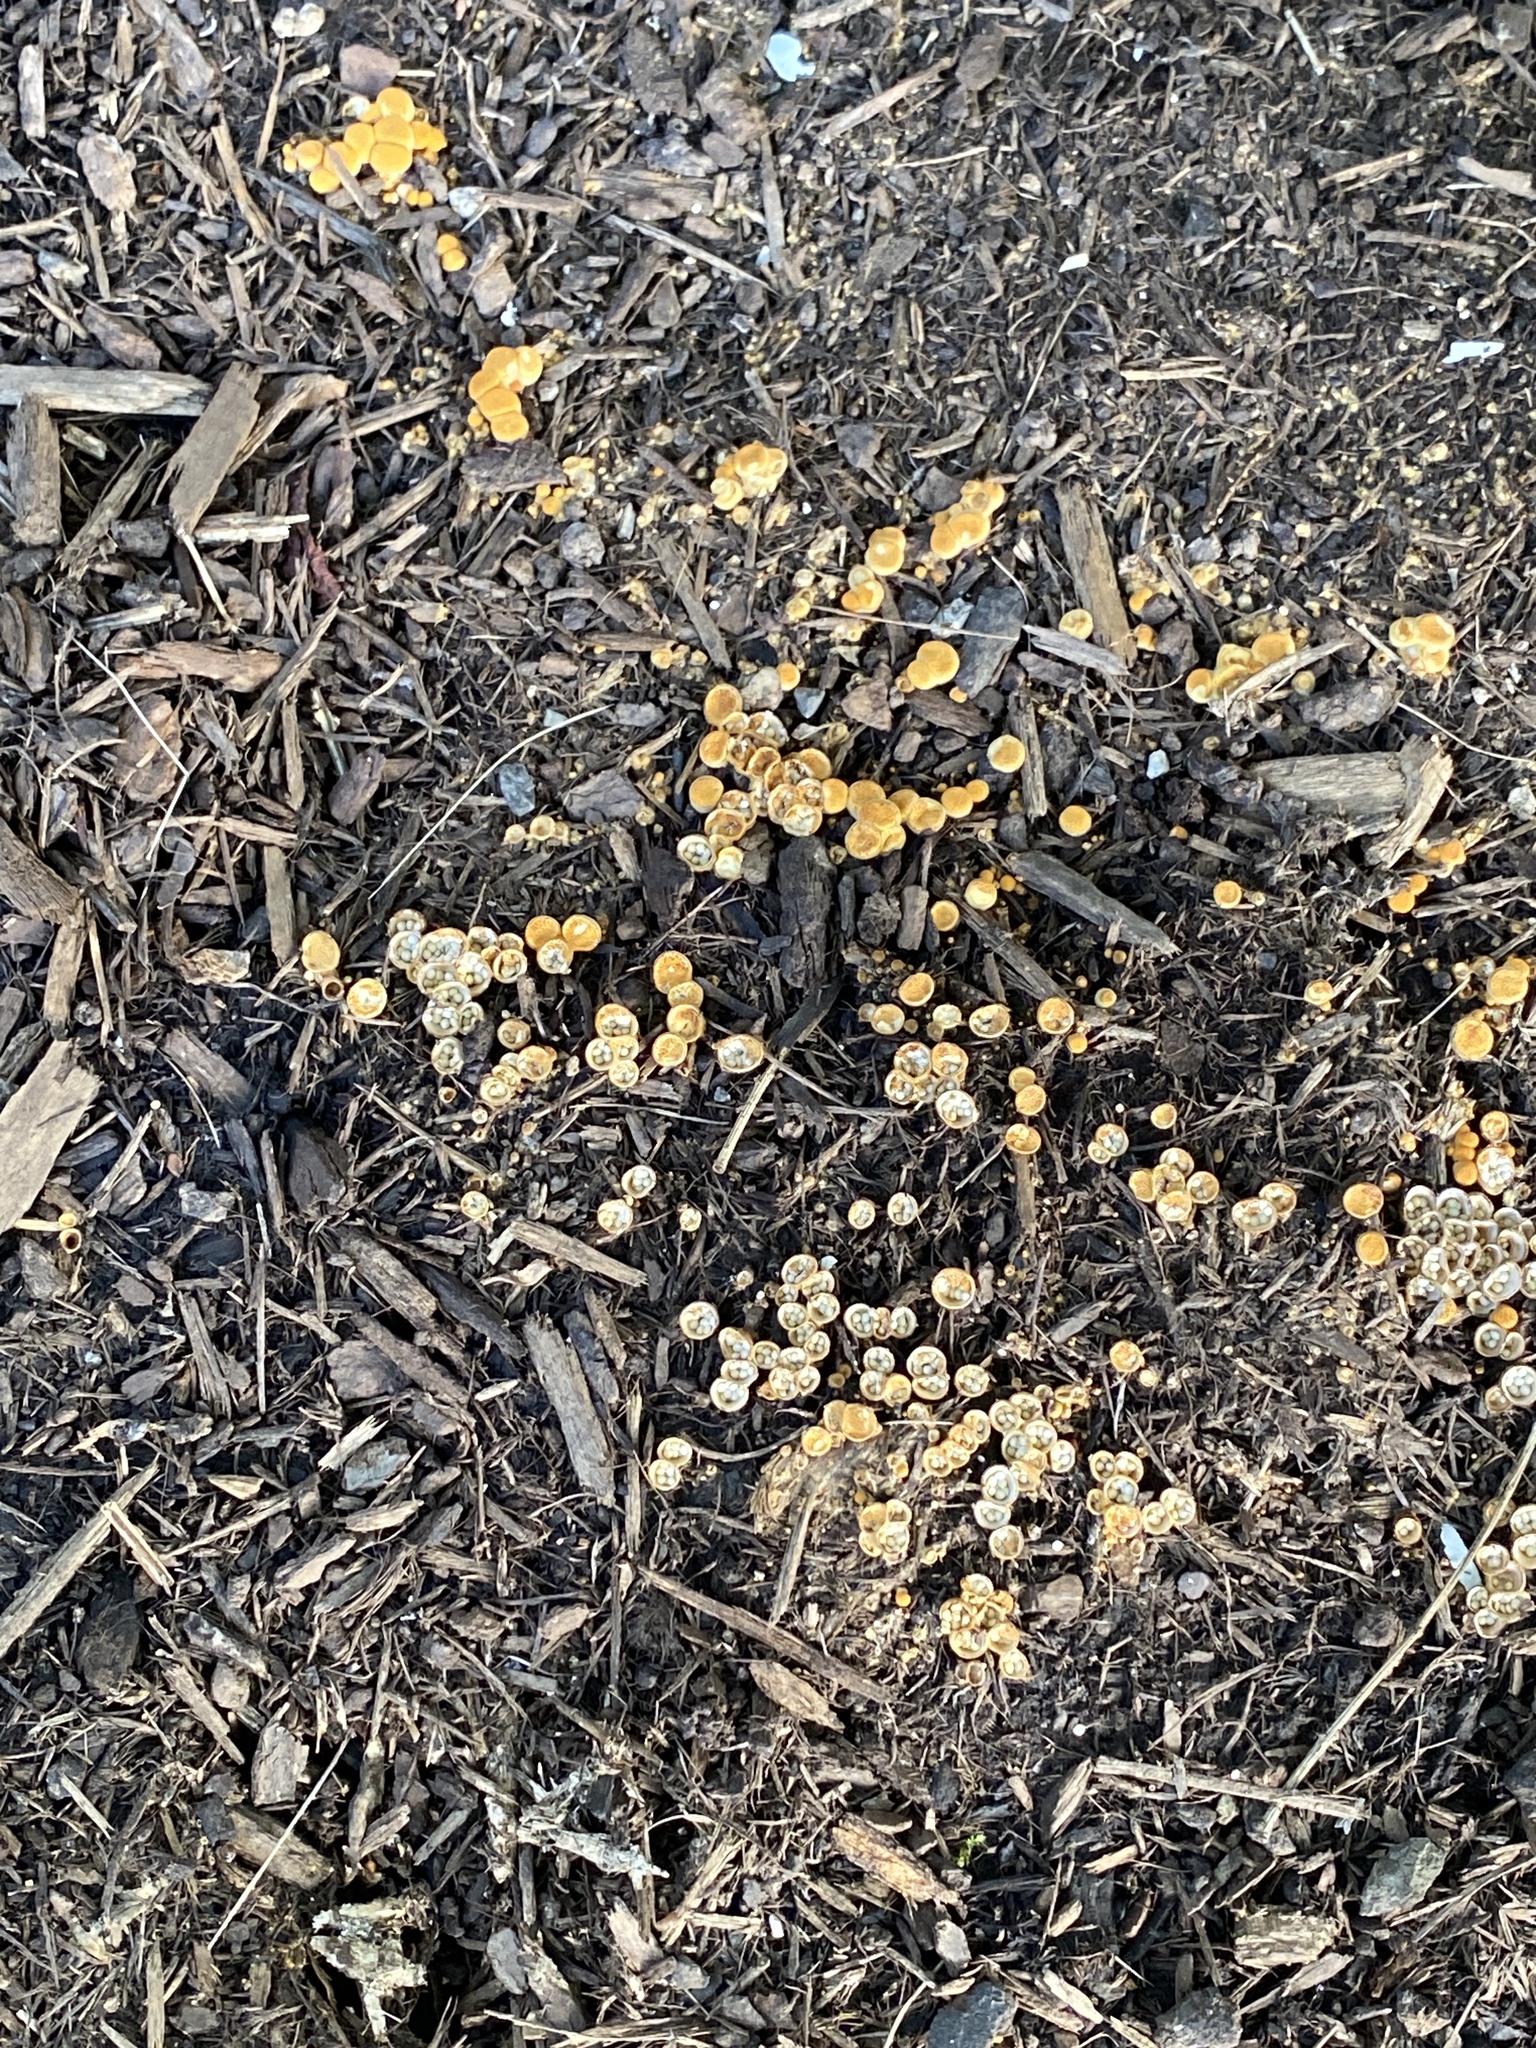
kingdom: Fungi
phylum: Basidiomycota
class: Agaricomycetes
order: Agaricales
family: Nidulariaceae
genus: Crucibulum
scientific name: Crucibulum laeve
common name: Common bird's nest
